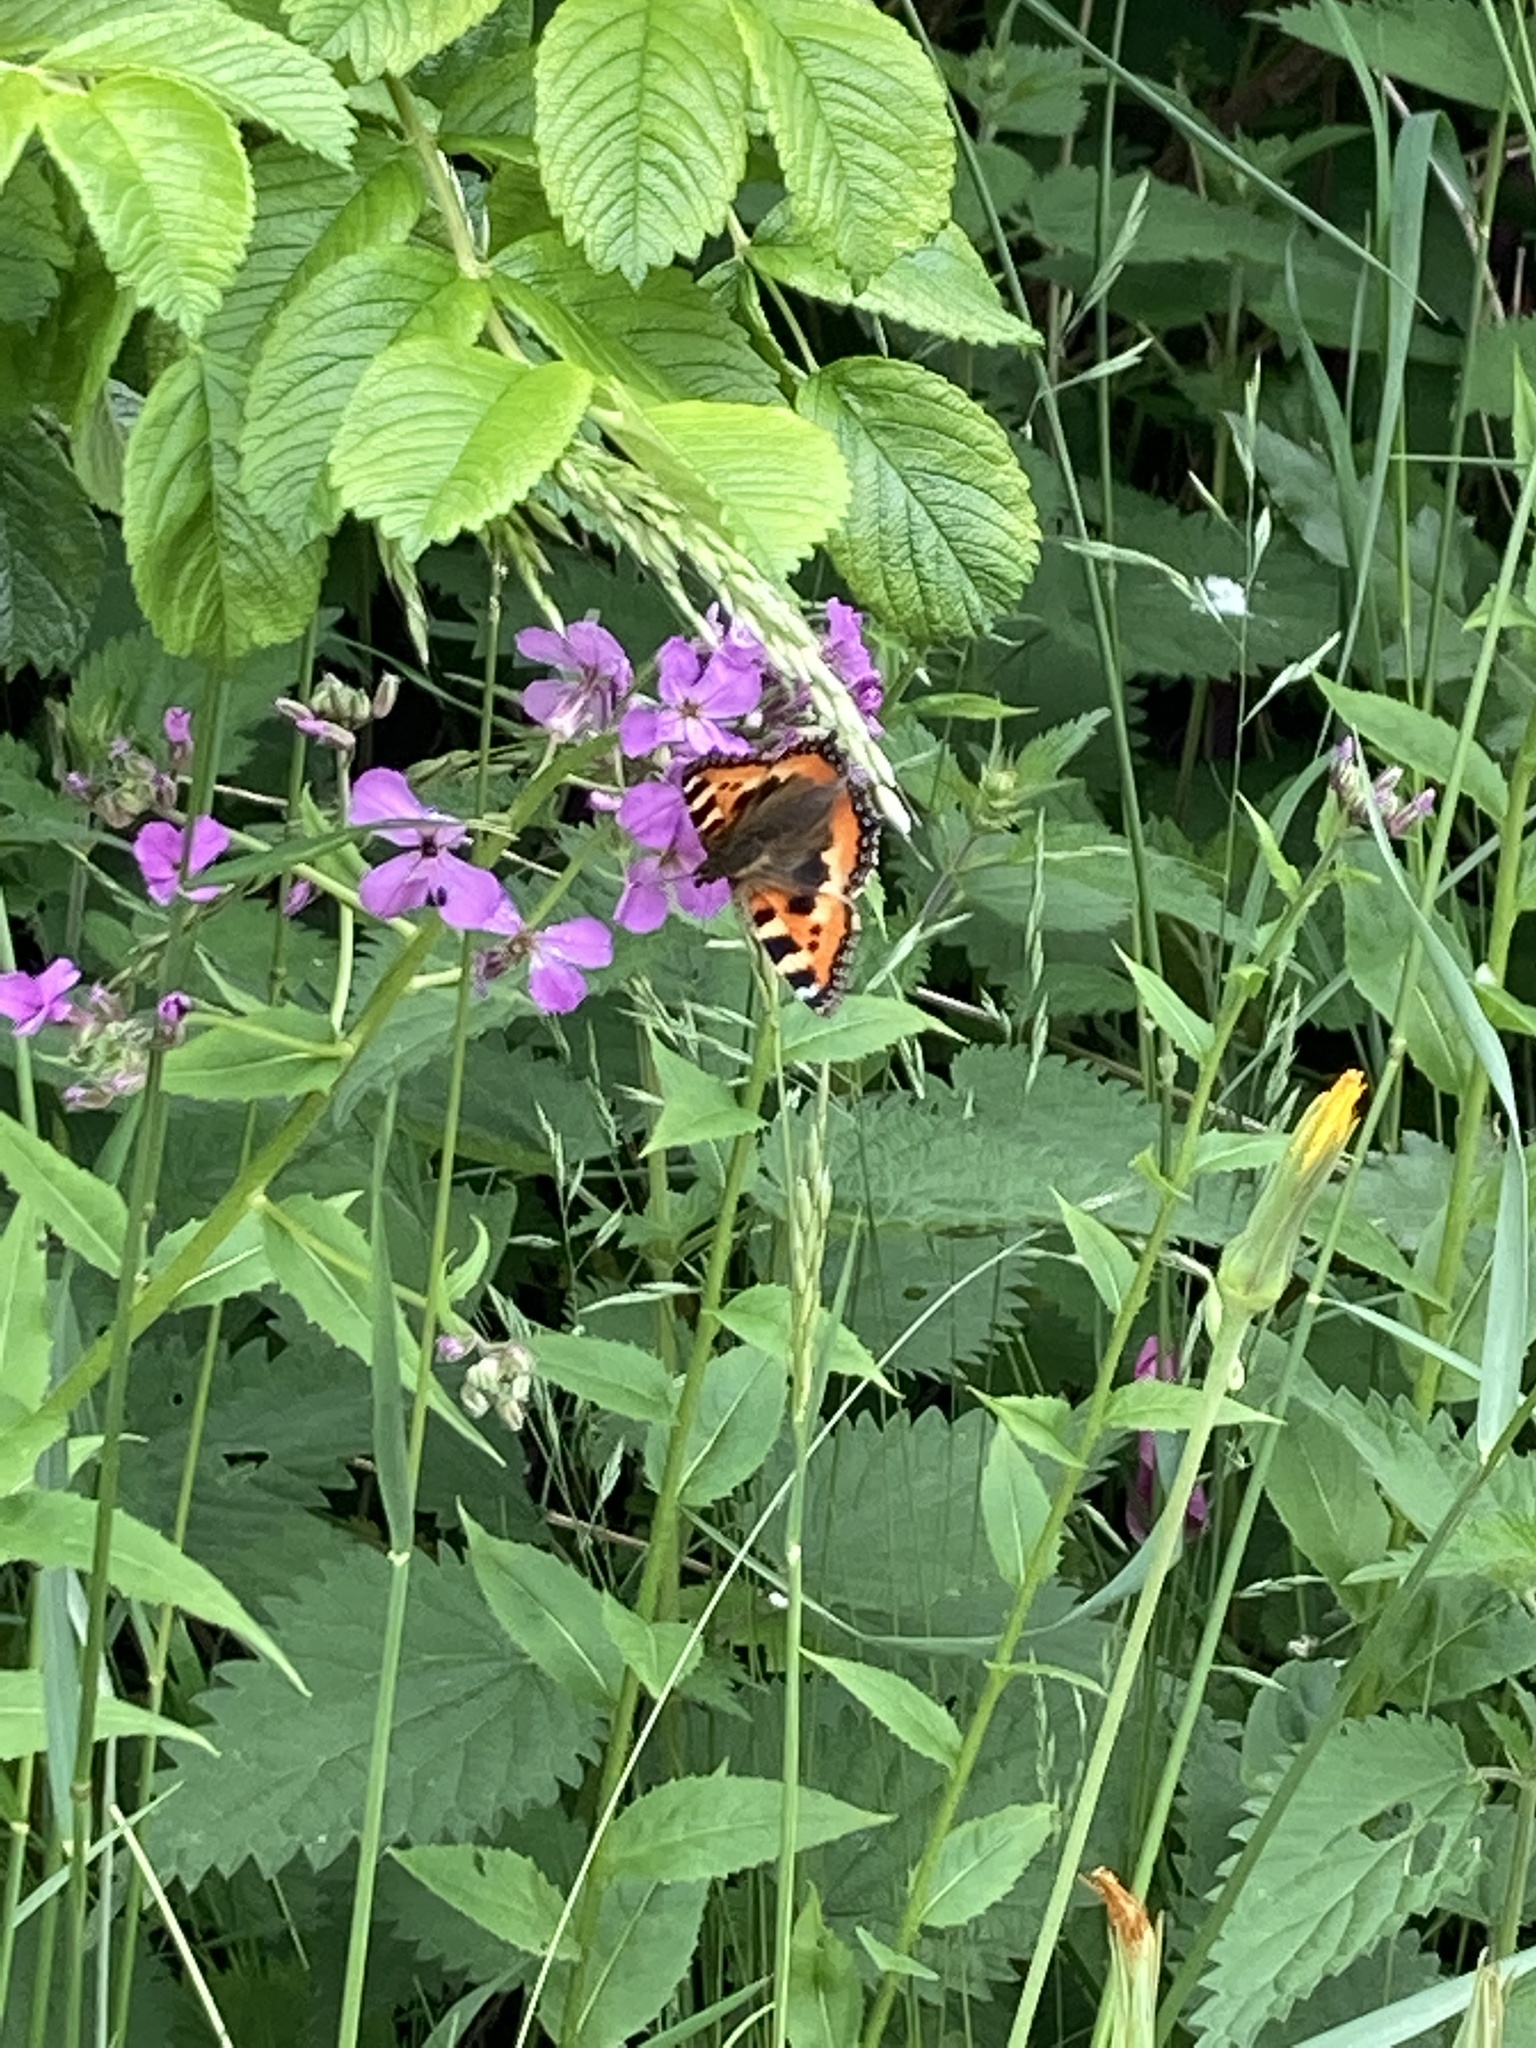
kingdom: Animalia
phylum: Arthropoda
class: Insecta
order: Lepidoptera
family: Nymphalidae
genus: Aglais
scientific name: Aglais urticae
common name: Small tortoiseshell
